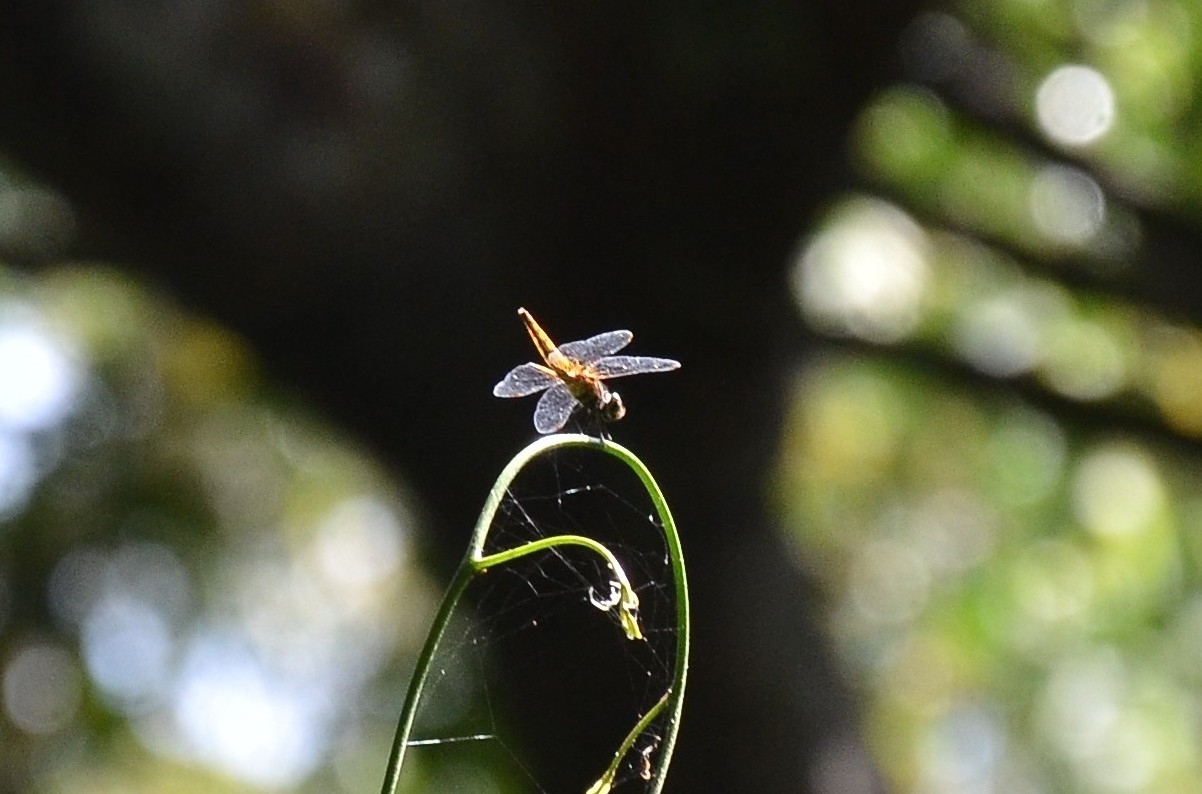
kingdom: Animalia
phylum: Arthropoda
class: Insecta
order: Odonata
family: Libellulidae
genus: Aethriamanta
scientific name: Aethriamanta brevipennis
